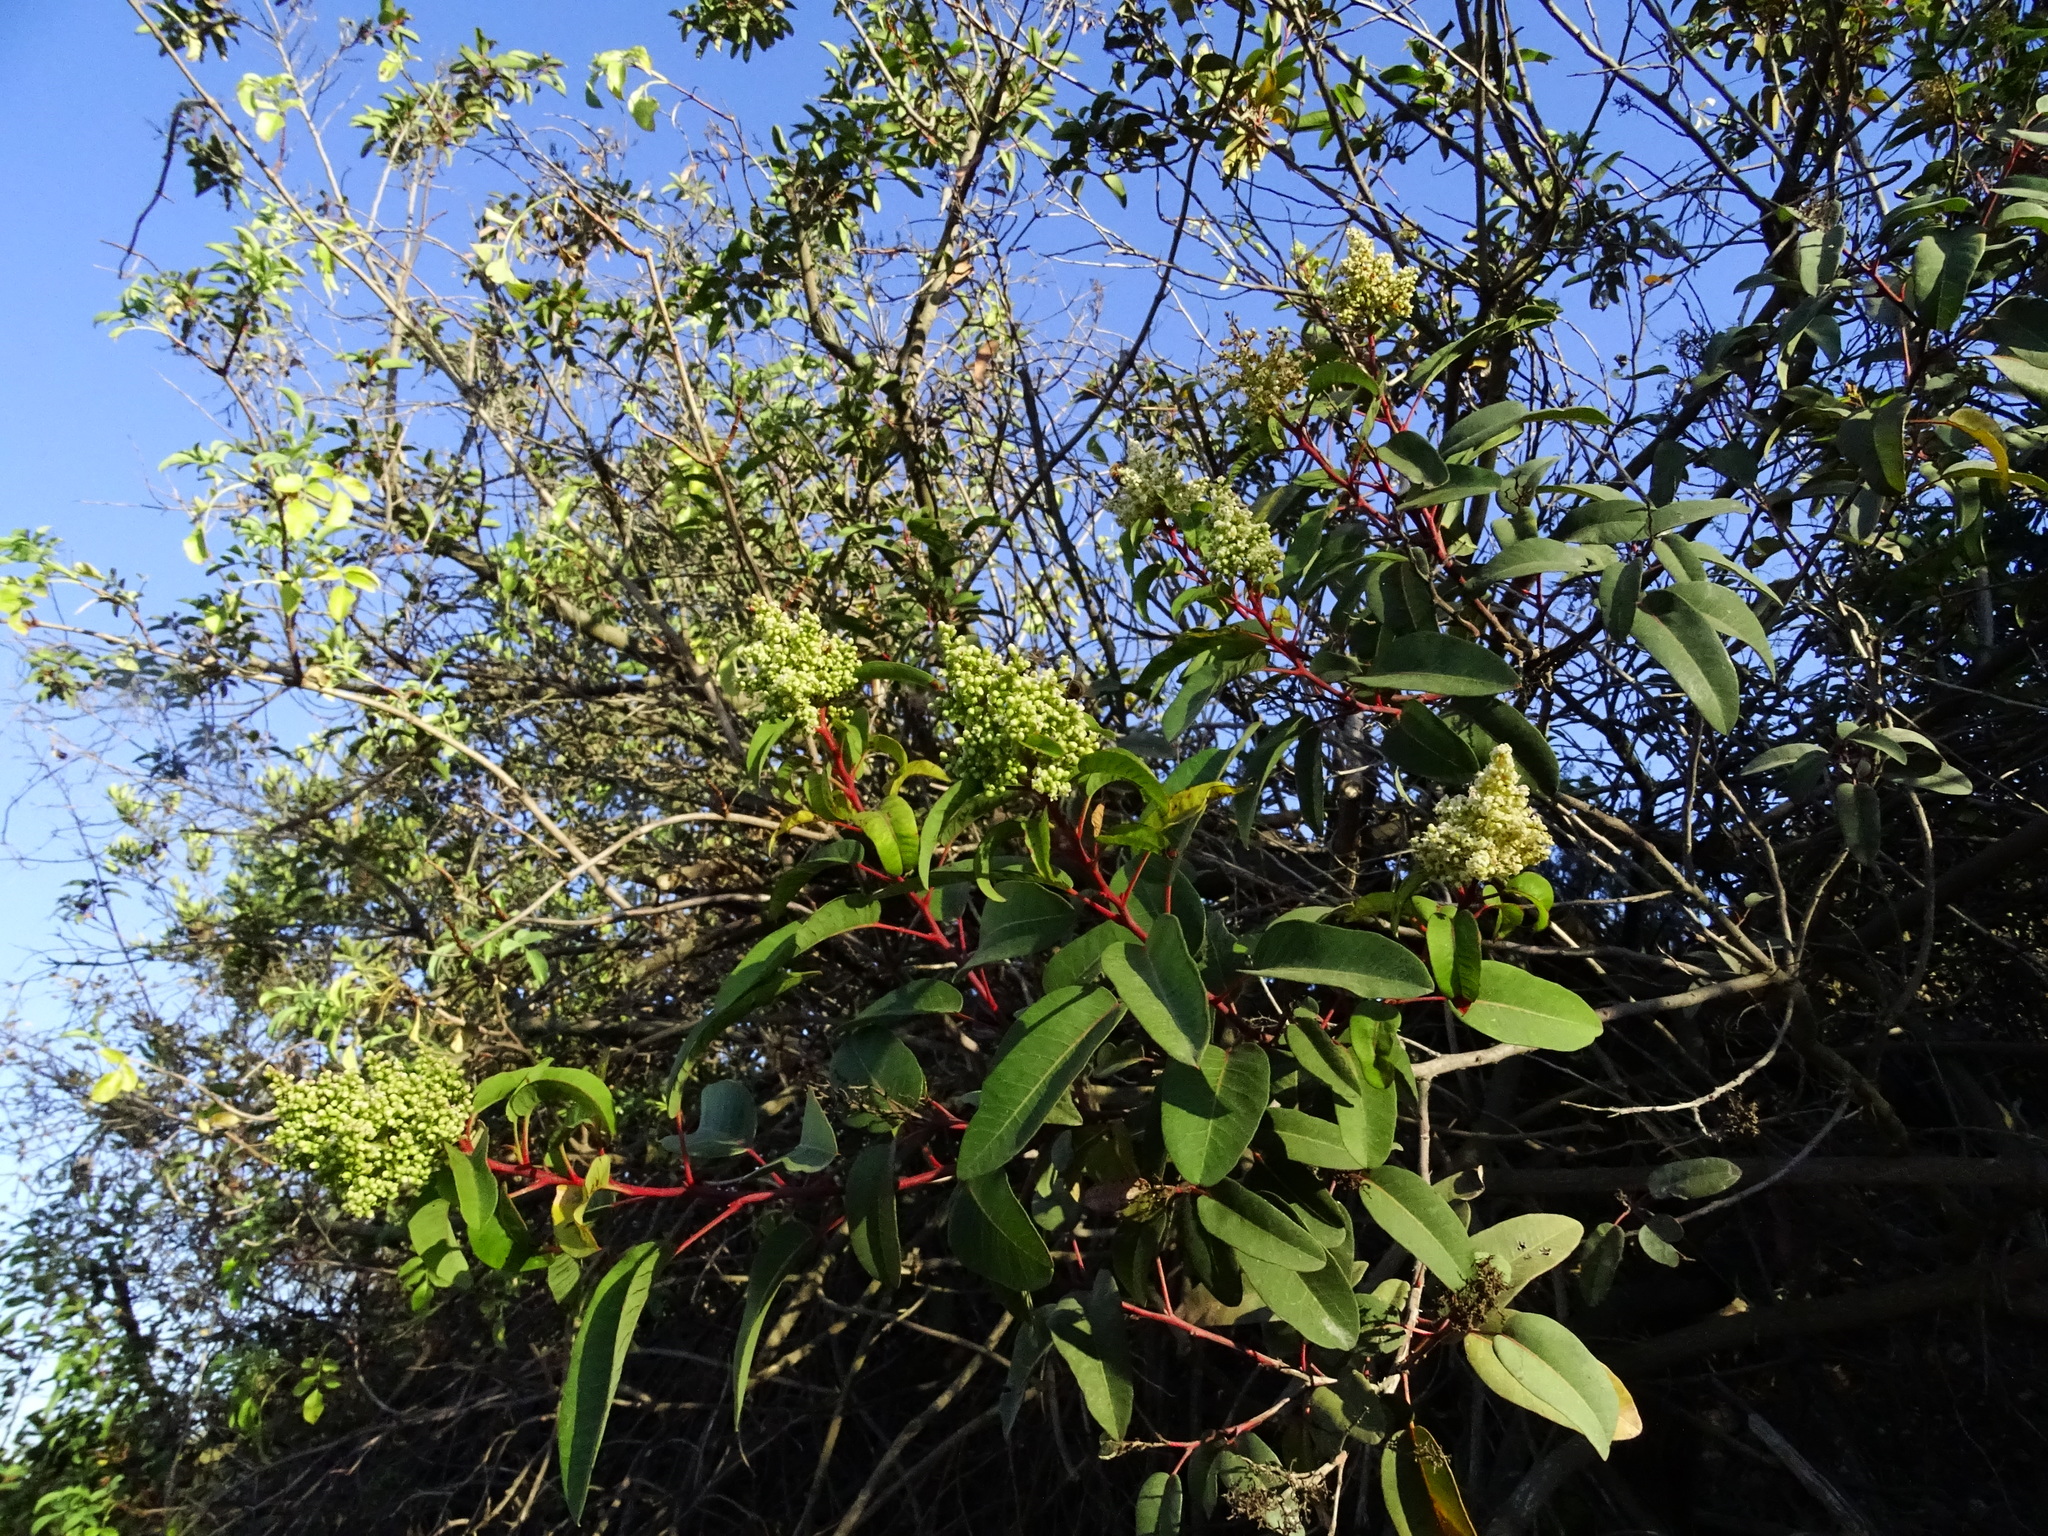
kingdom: Plantae
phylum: Tracheophyta
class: Magnoliopsida
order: Sapindales
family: Anacardiaceae
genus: Malosma
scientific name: Malosma laurina
